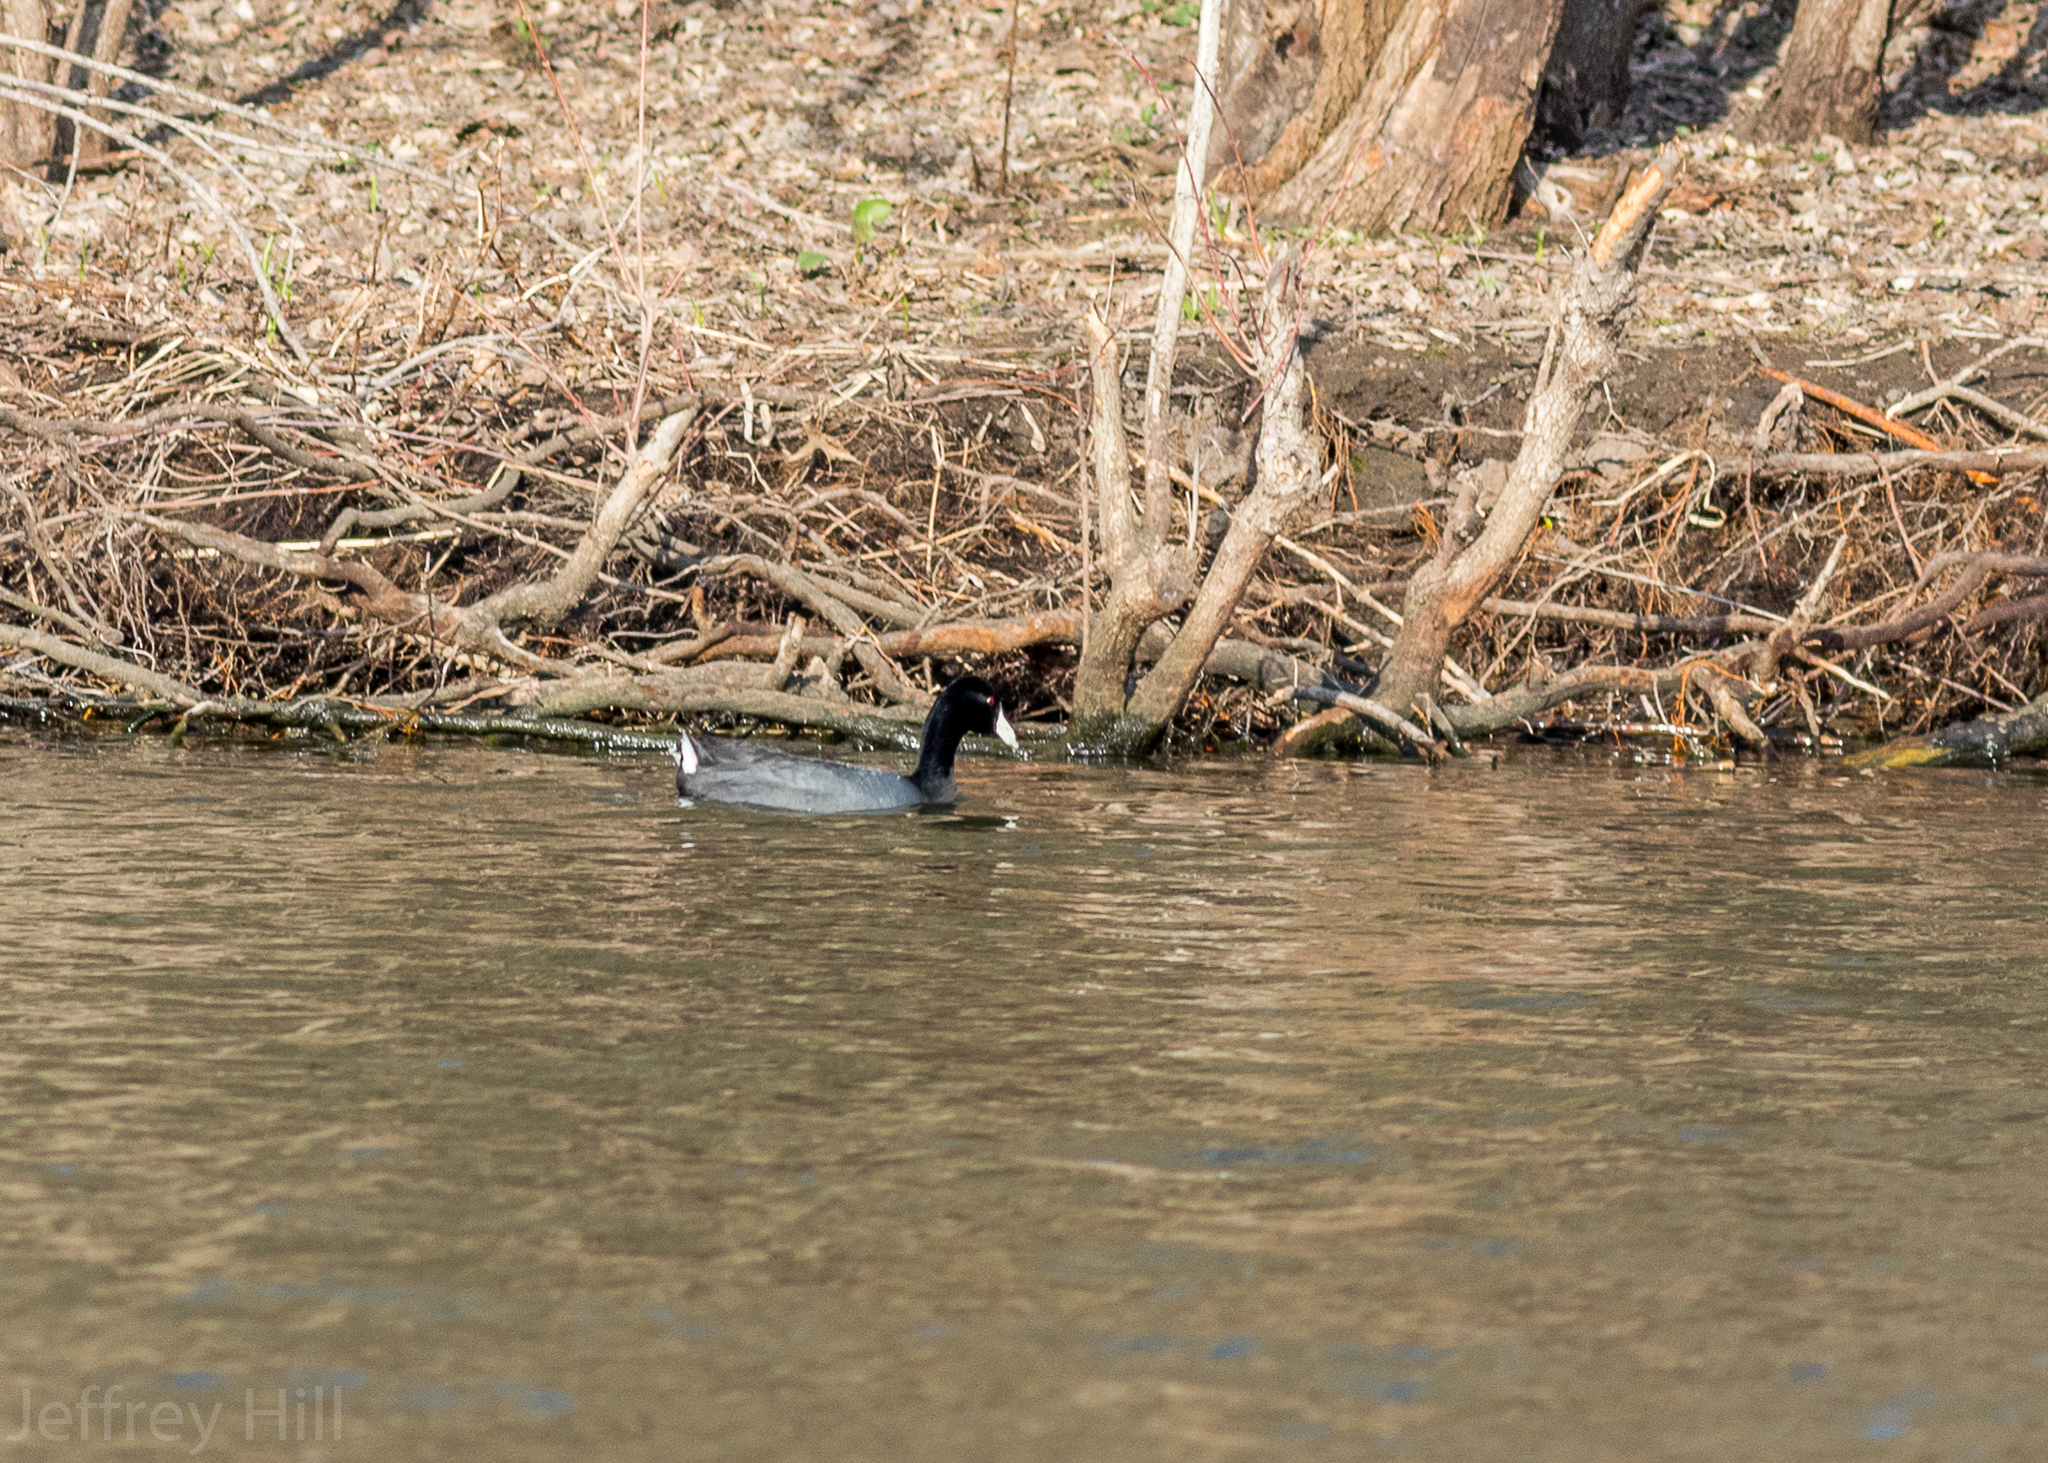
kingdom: Animalia
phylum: Chordata
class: Aves
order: Gruiformes
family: Rallidae
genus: Fulica
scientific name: Fulica americana
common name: American coot
